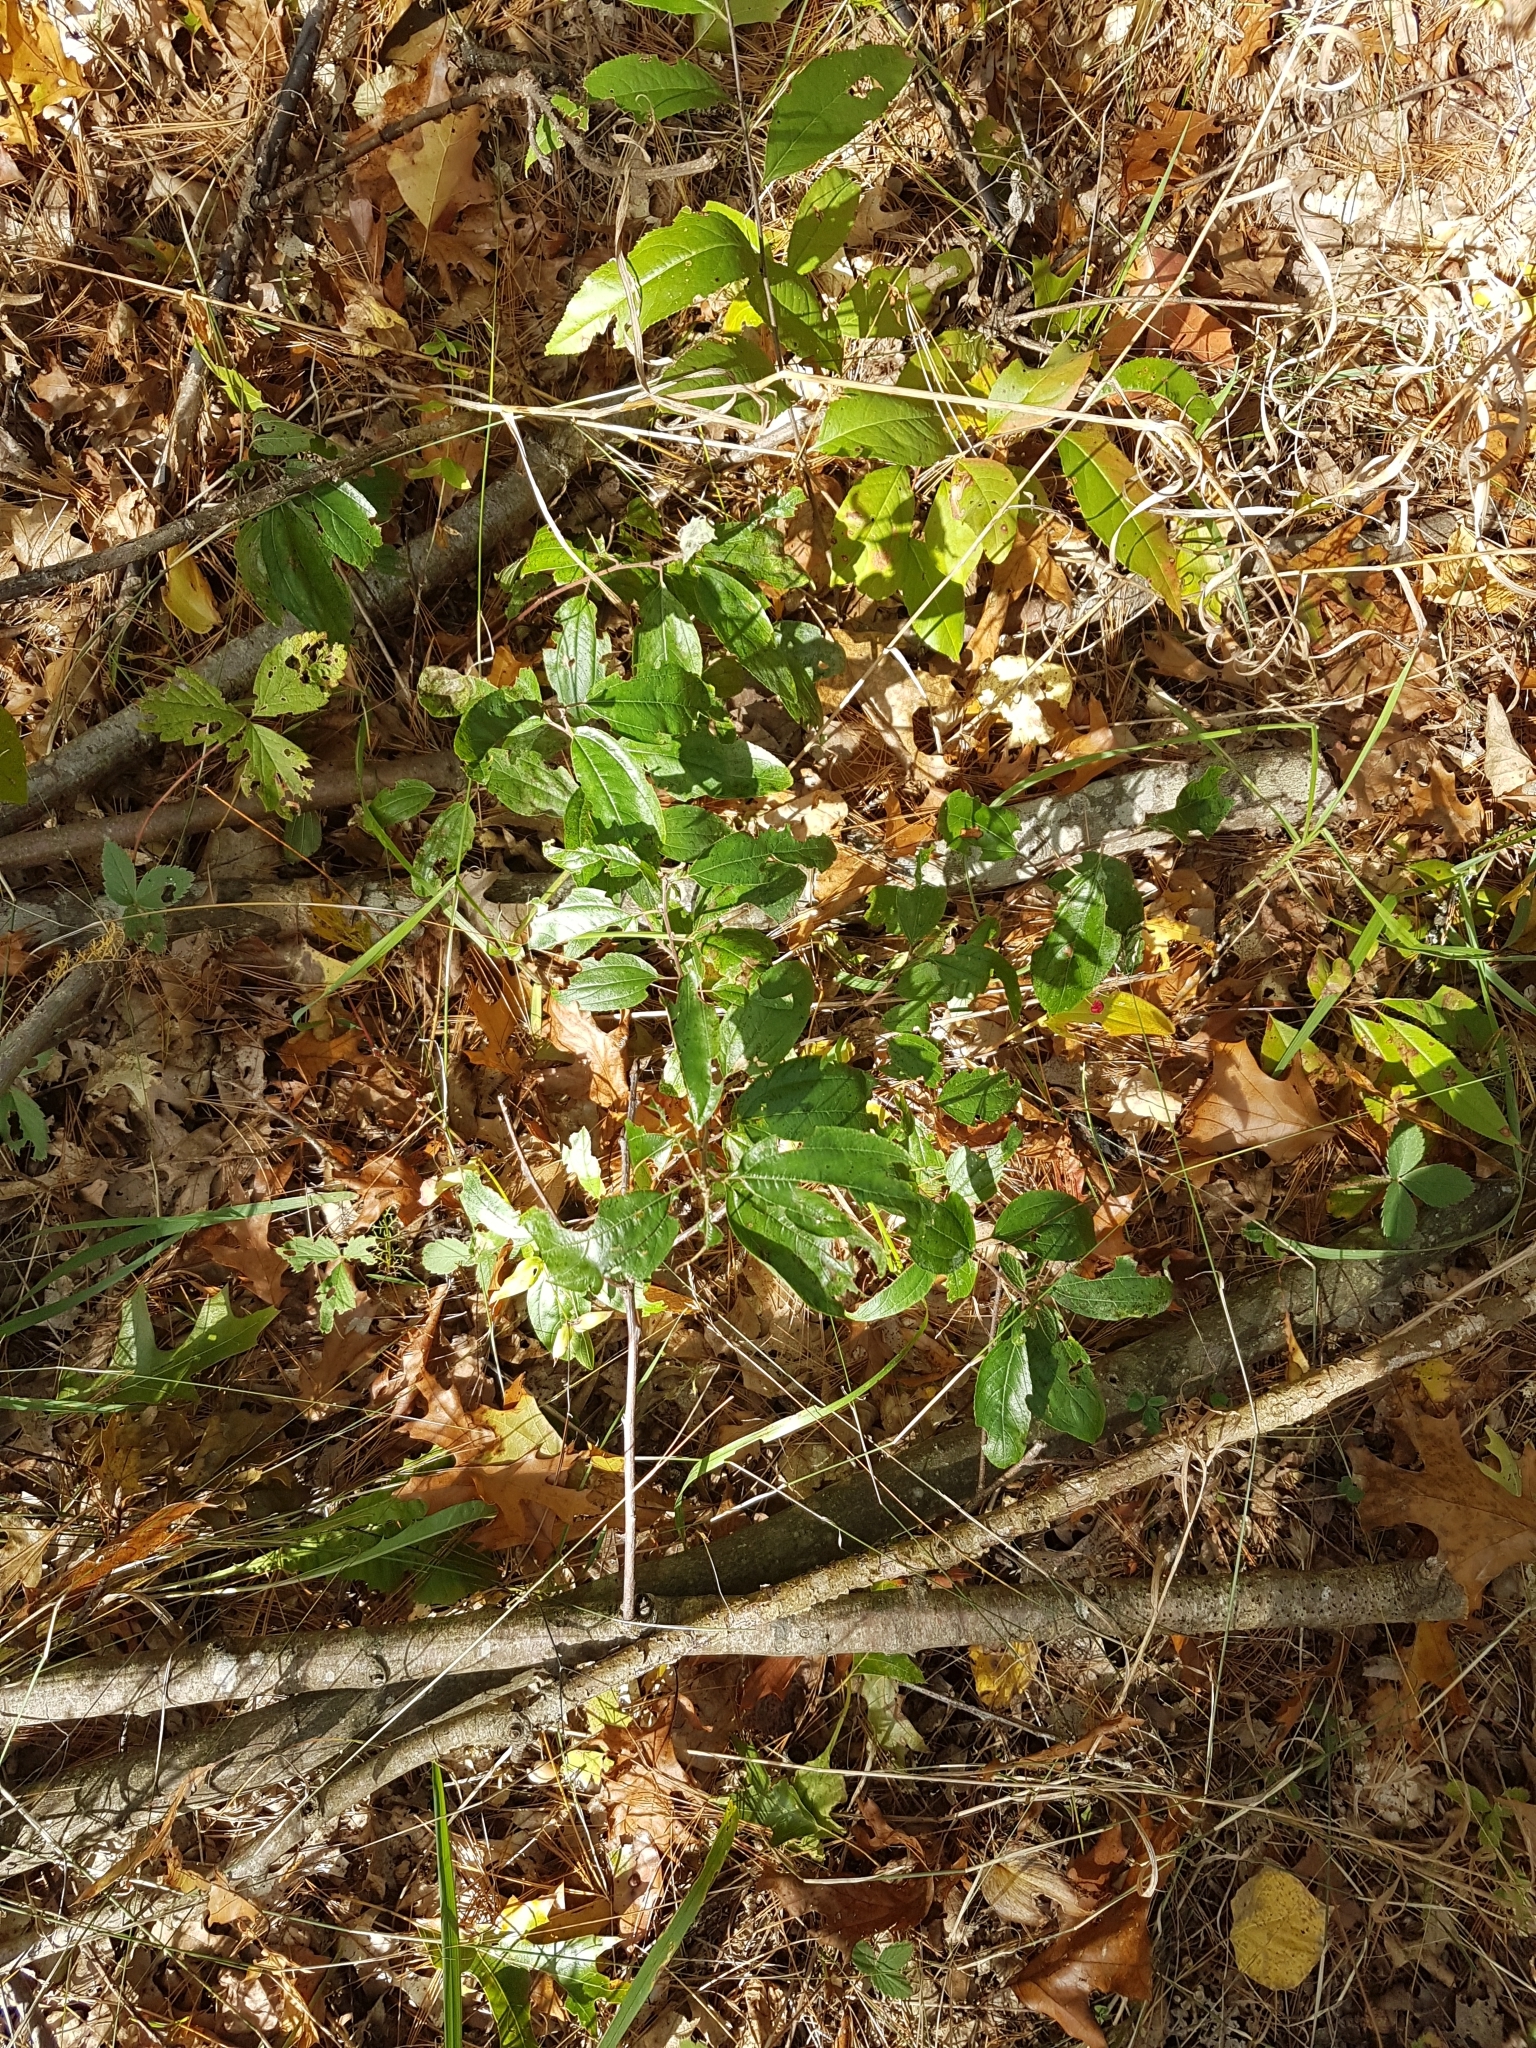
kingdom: Plantae
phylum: Tracheophyta
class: Magnoliopsida
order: Rosales
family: Rhamnaceae
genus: Ceanothus
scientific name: Ceanothus americanus
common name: Redroot
